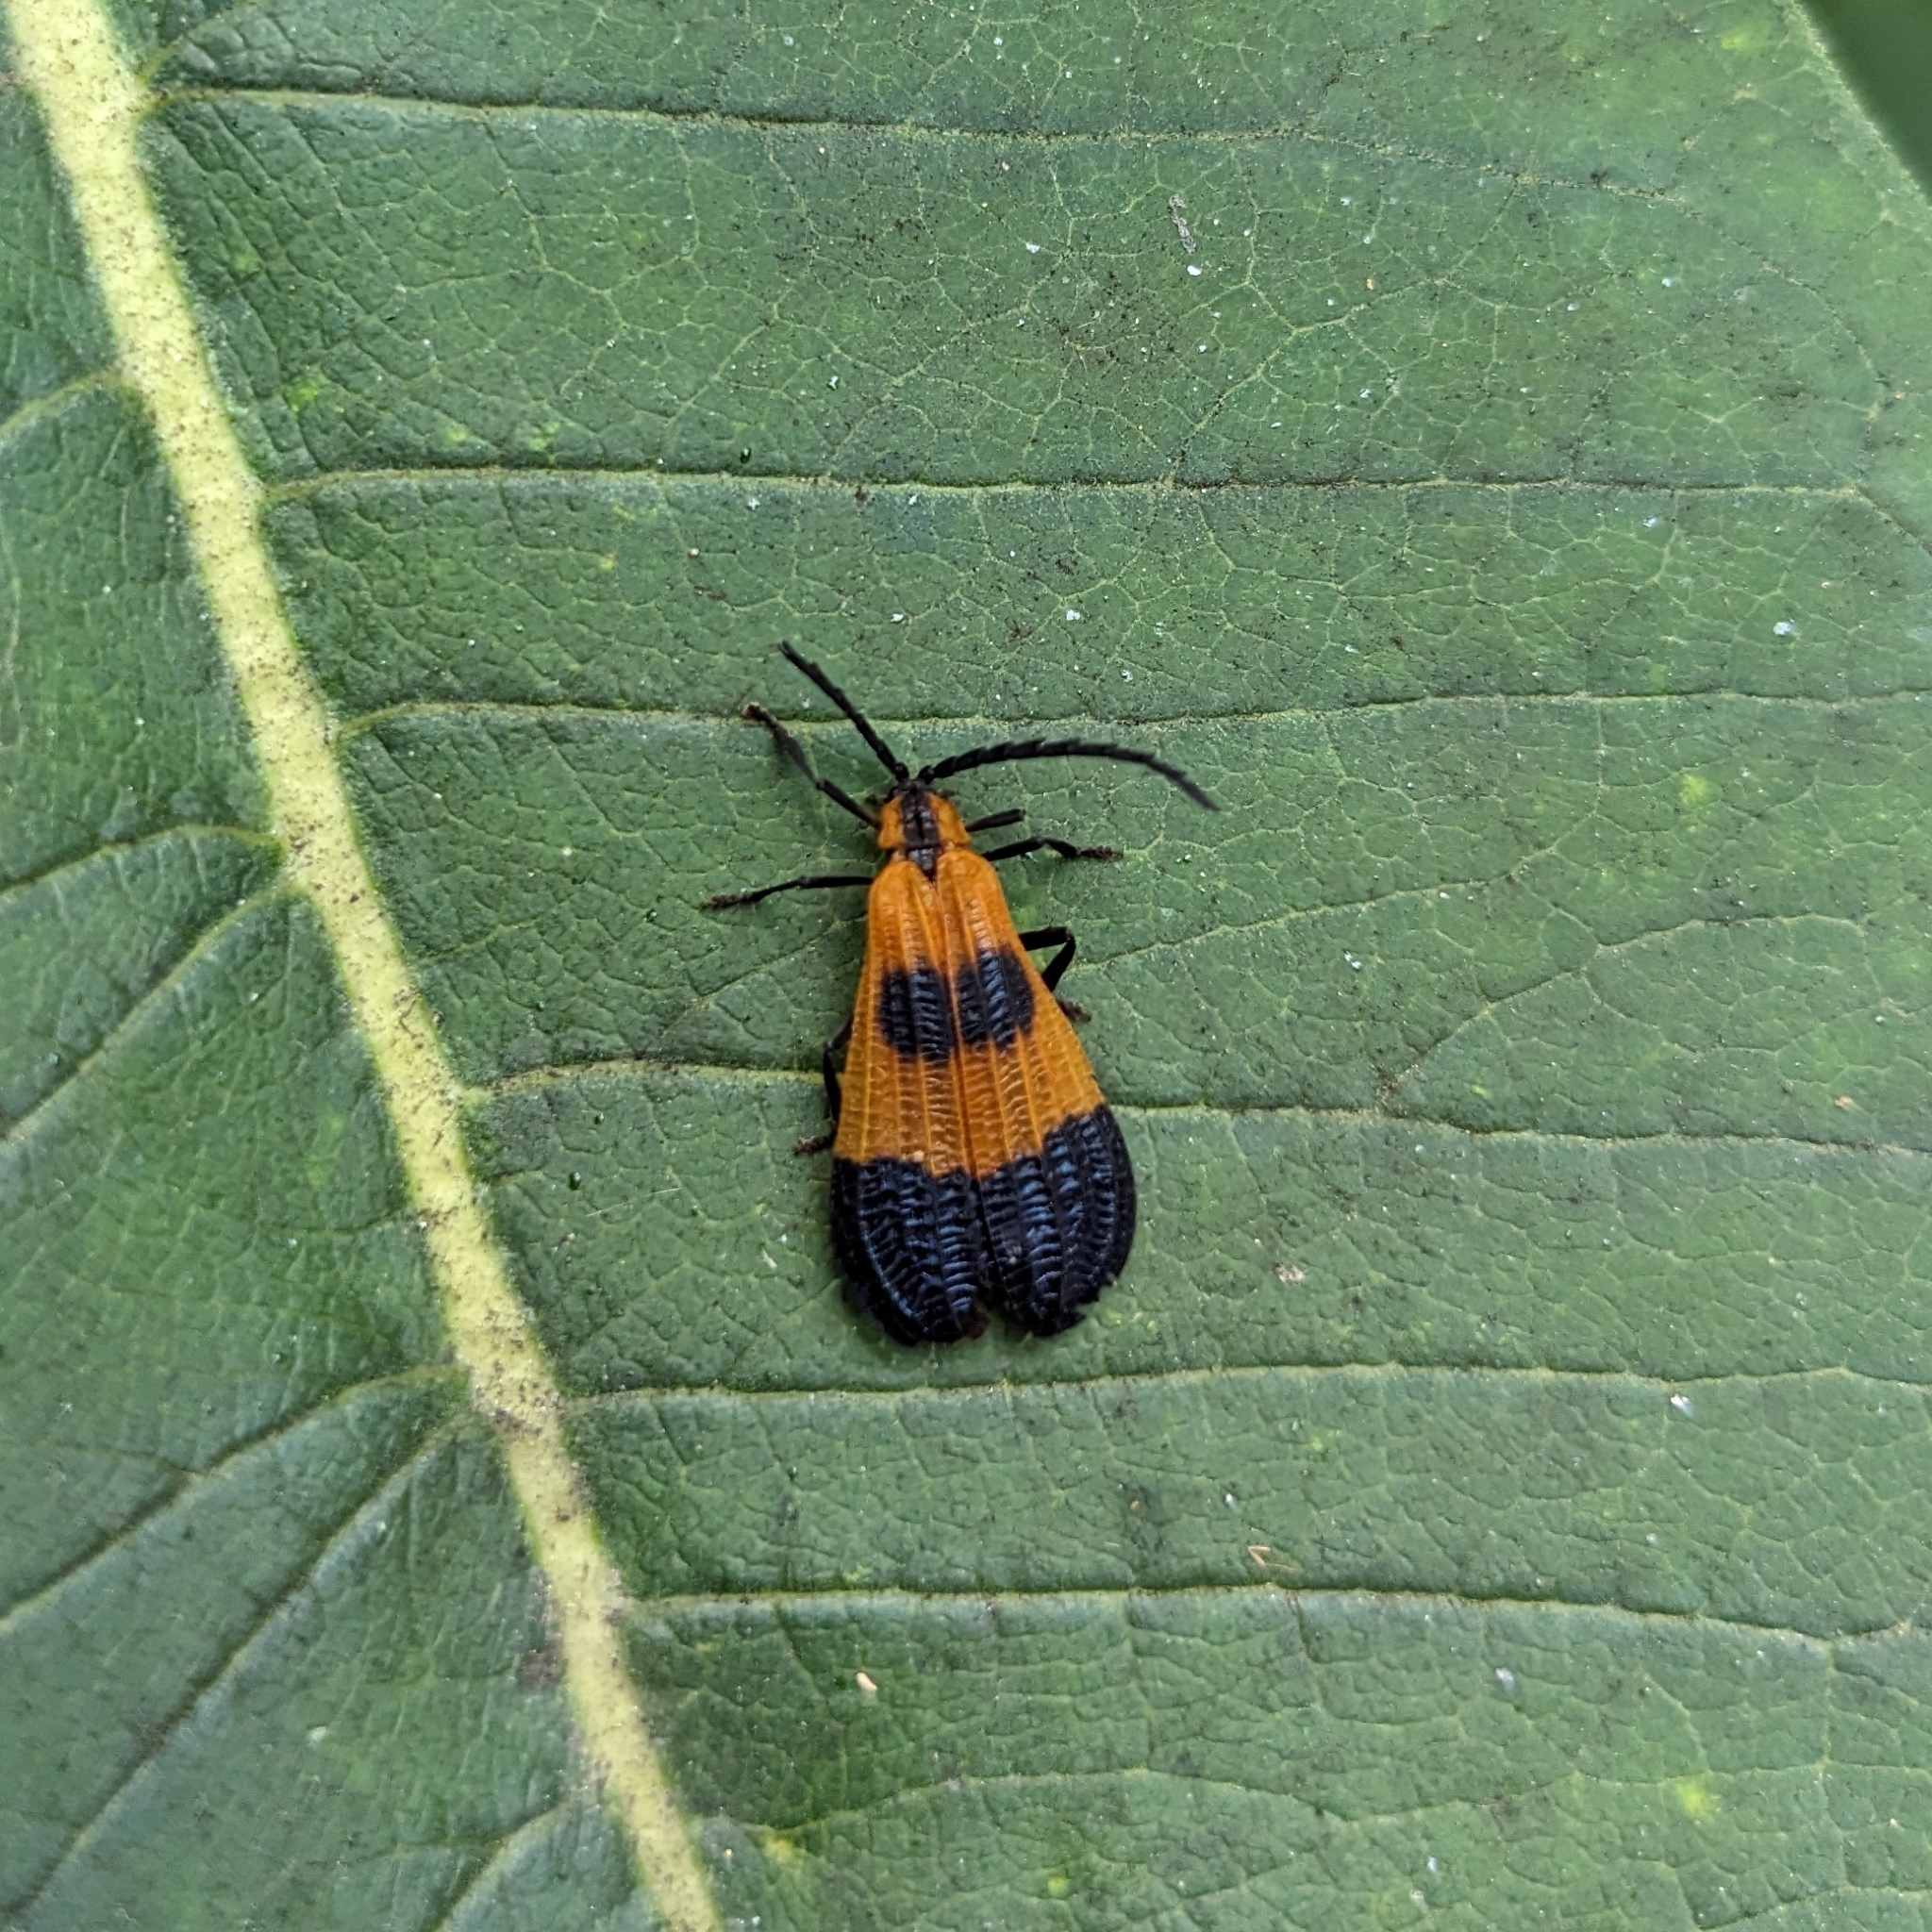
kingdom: Animalia
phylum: Arthropoda
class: Insecta
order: Coleoptera
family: Lycidae
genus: Calopteron
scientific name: Calopteron terminale
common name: End band net-winged beetle
